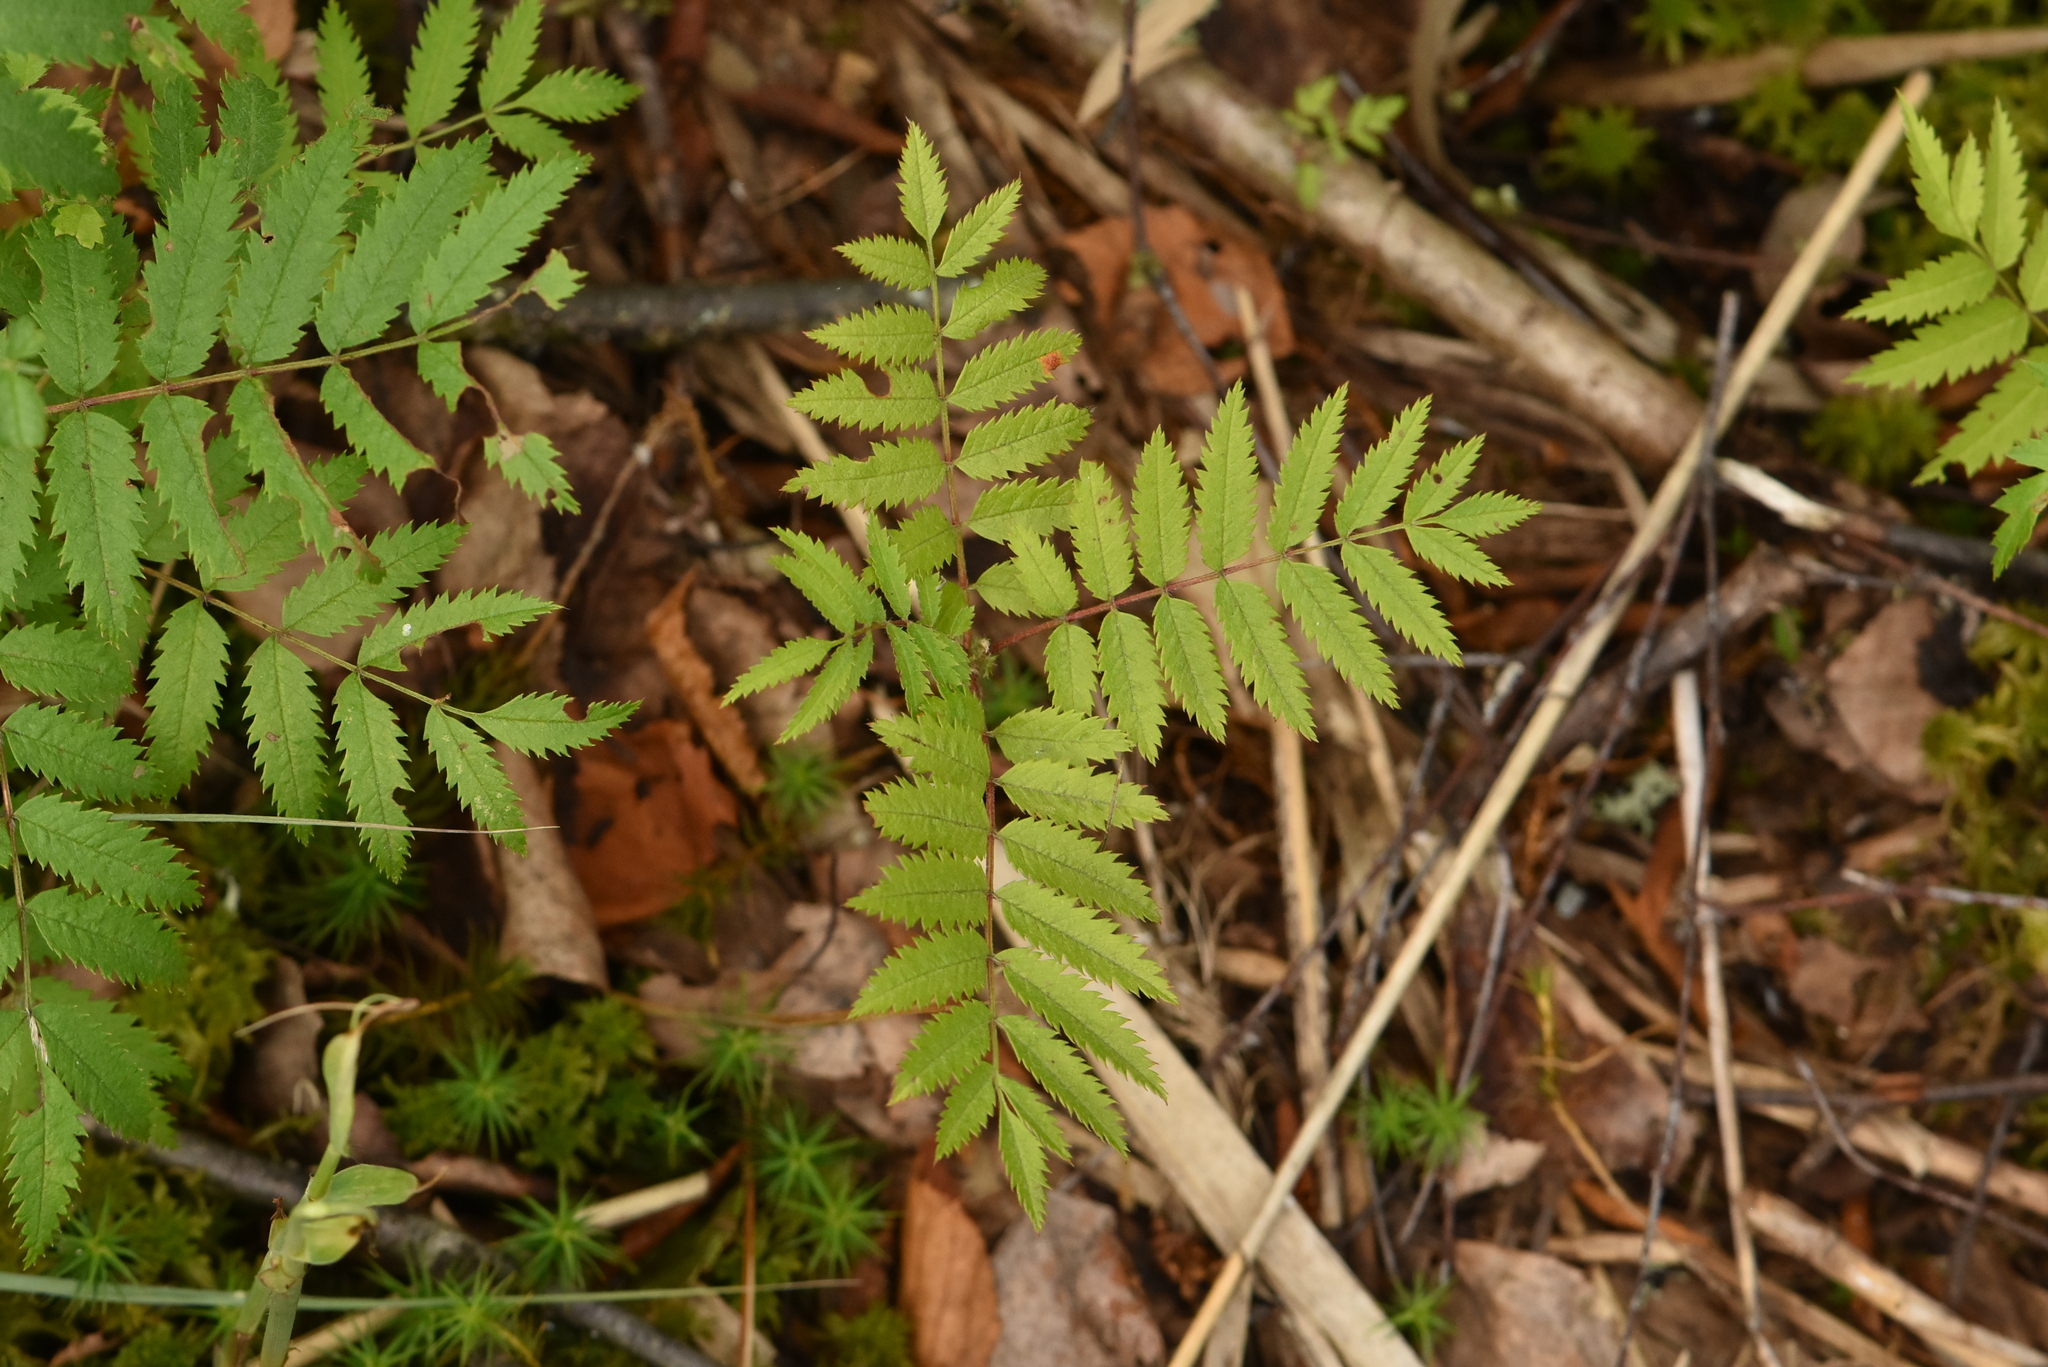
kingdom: Plantae
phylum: Tracheophyta
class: Magnoliopsida
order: Rosales
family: Rosaceae
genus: Sorbus
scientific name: Sorbus aucuparia
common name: Rowan
